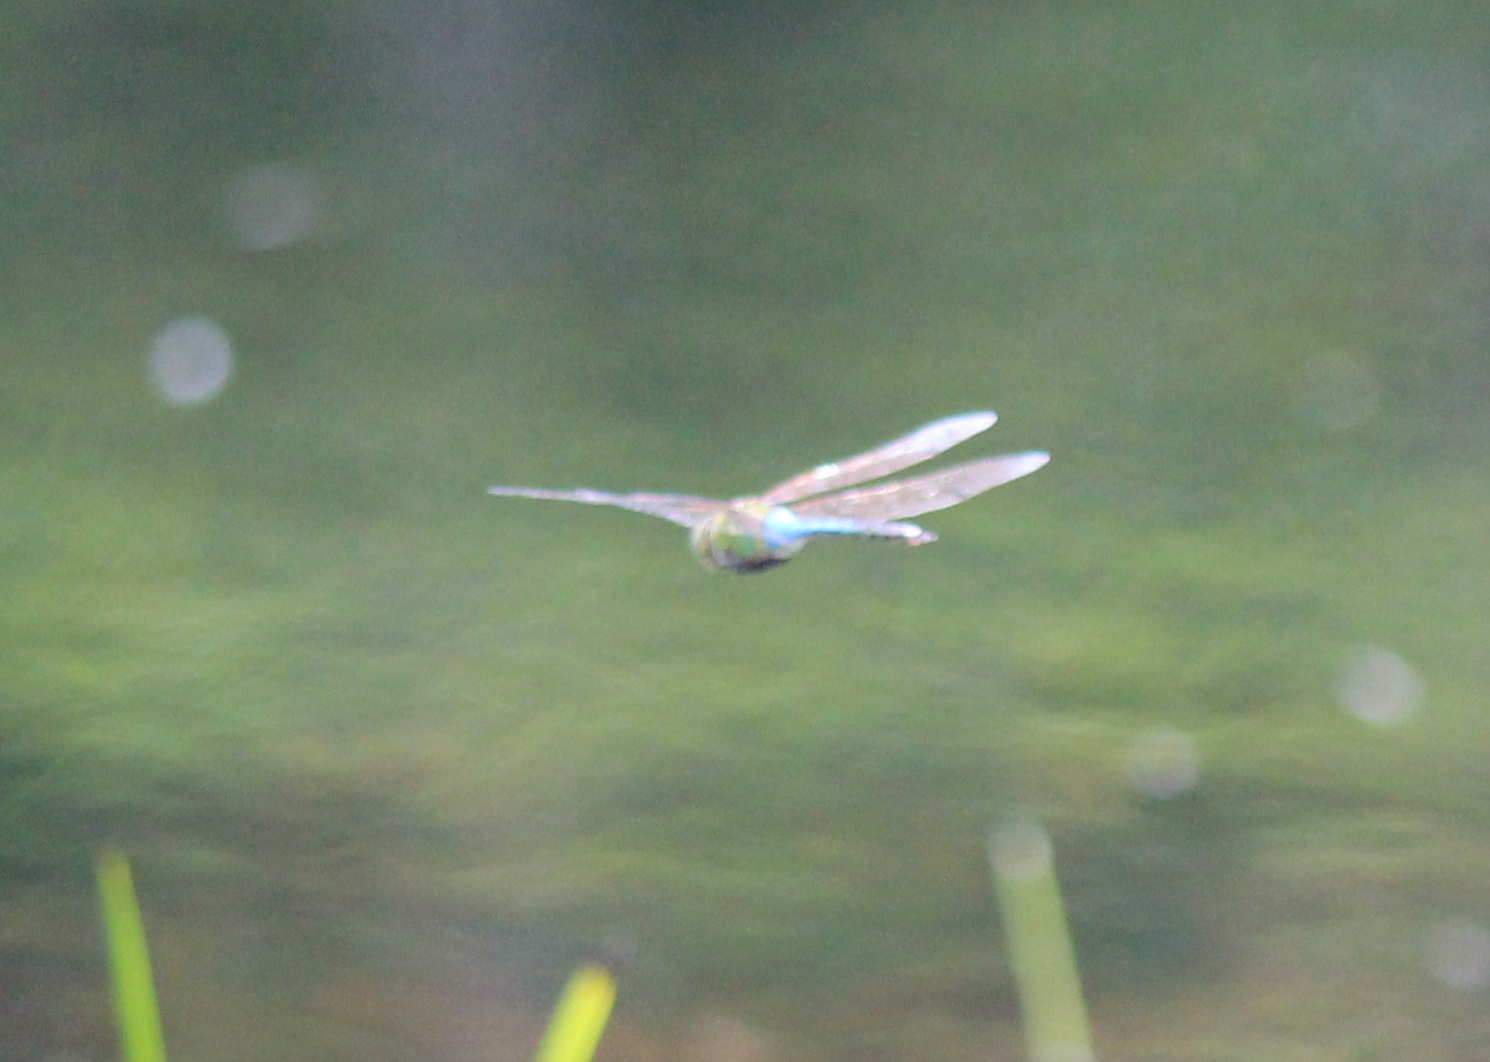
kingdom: Animalia
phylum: Arthropoda
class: Insecta
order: Odonata
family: Aeshnidae
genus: Anax
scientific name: Anax junius
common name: Common green darner
